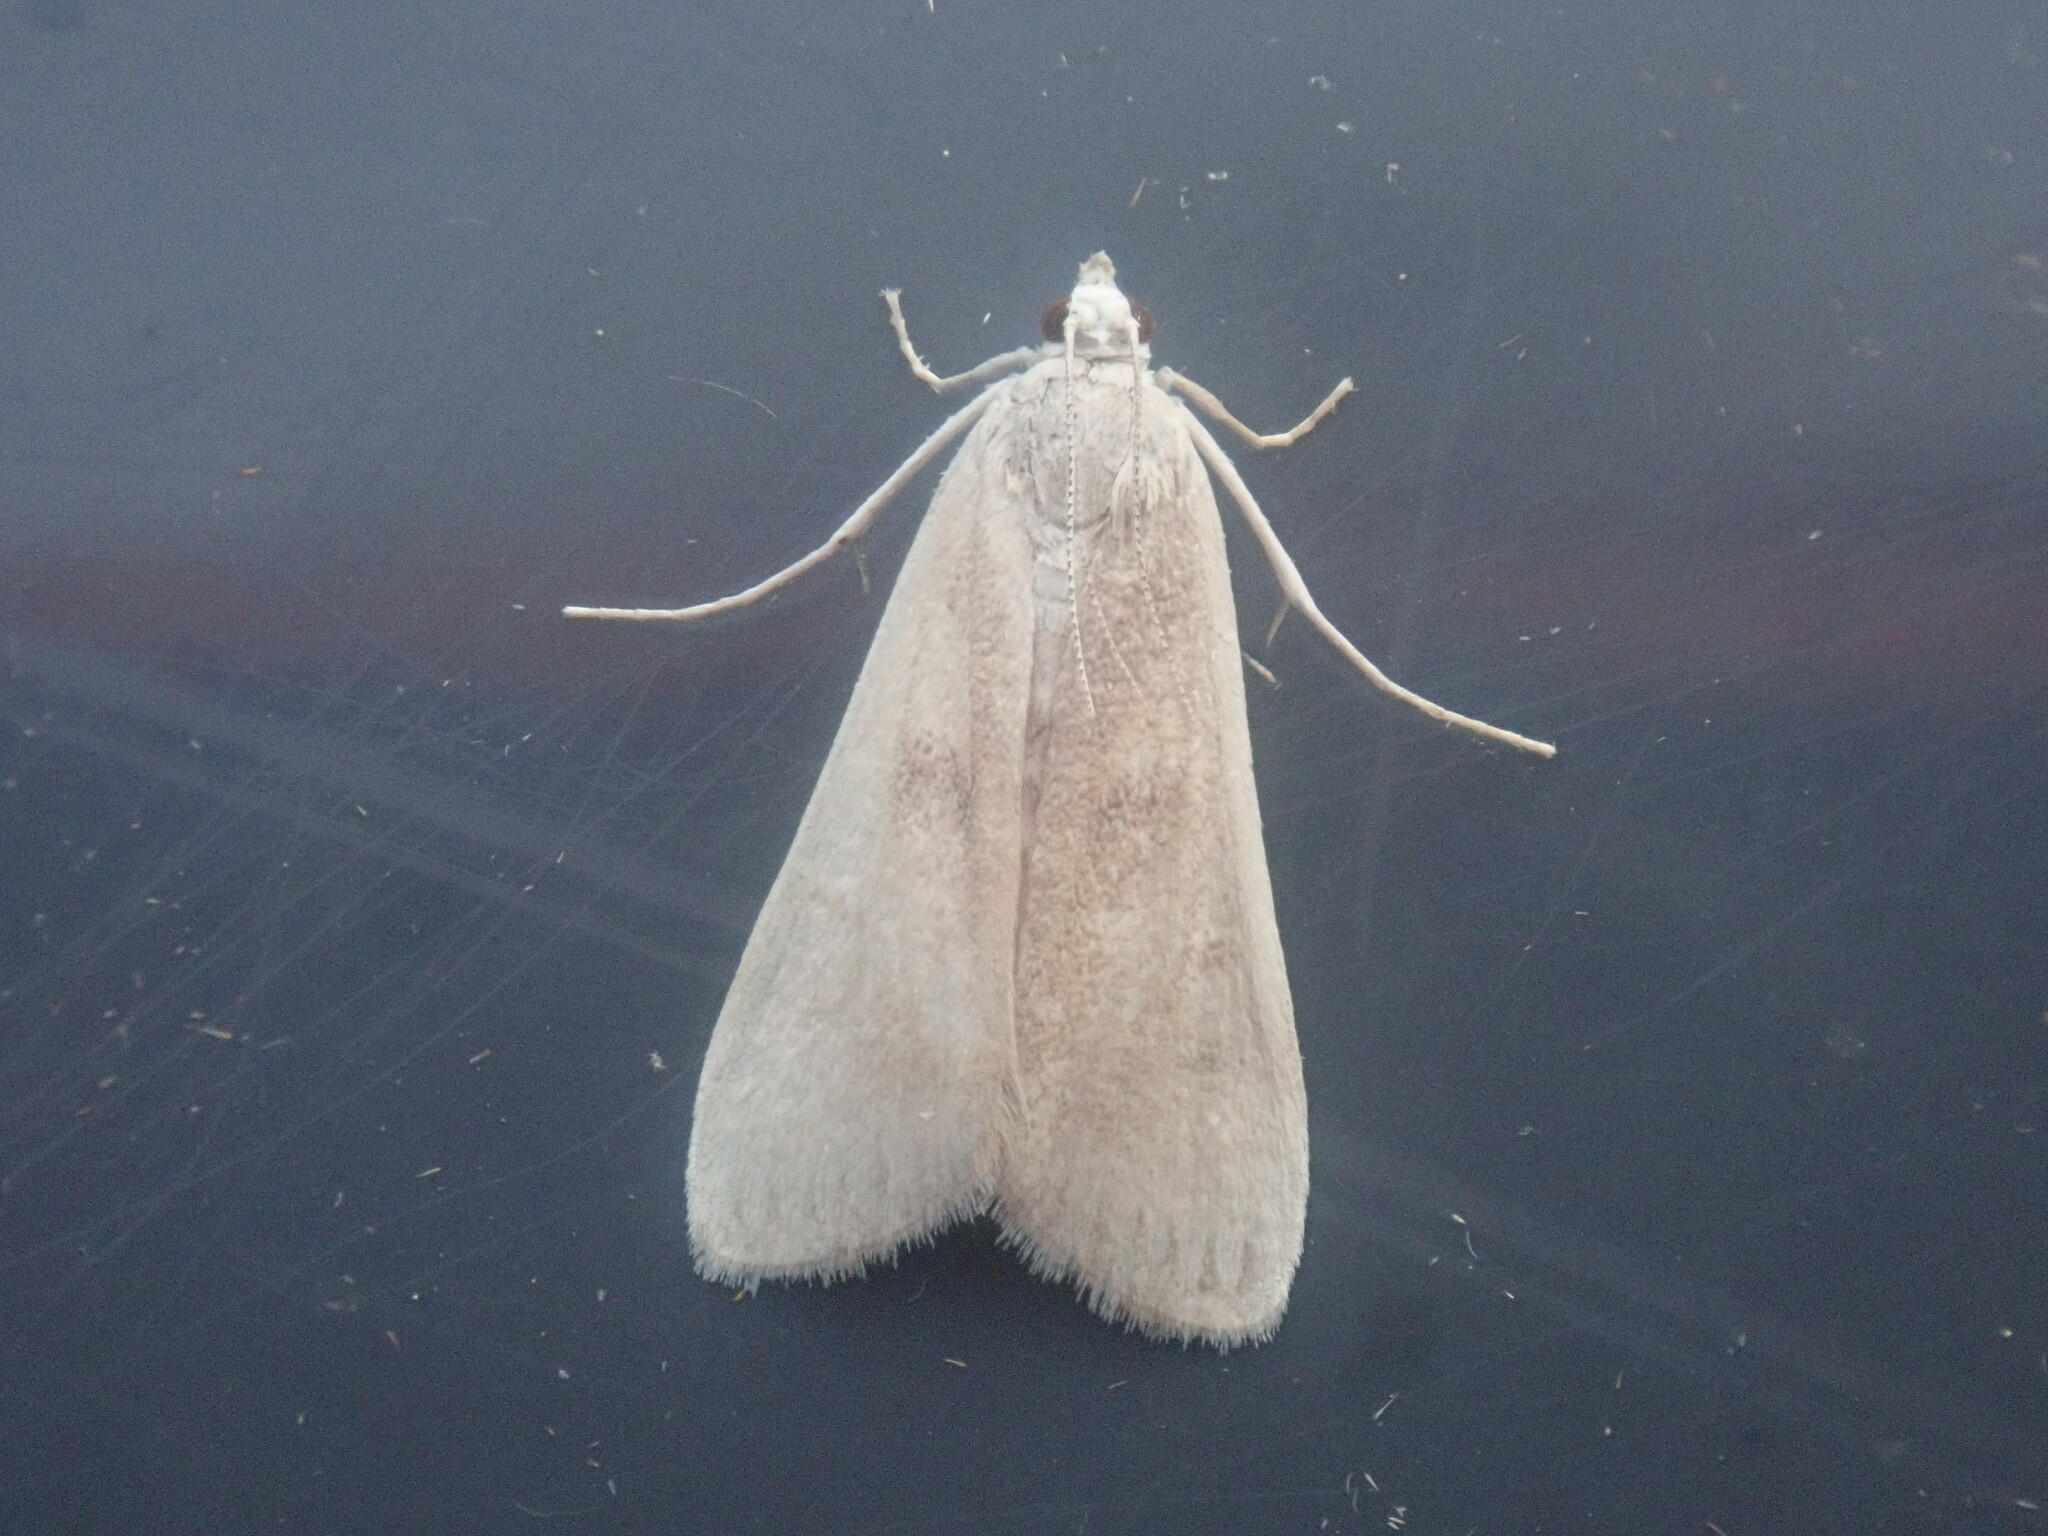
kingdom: Animalia
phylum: Arthropoda
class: Insecta
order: Lepidoptera
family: Crambidae
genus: Parapoynx
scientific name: Parapoynx maculalis
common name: Polymorphic pondweed moth
